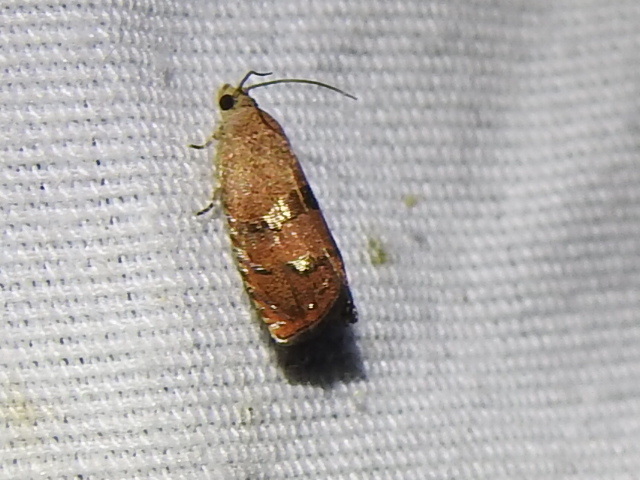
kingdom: Animalia
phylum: Arthropoda
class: Insecta
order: Lepidoptera
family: Tortricidae
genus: Cydia
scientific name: Cydia latiferreana
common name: Filbertworm moth
